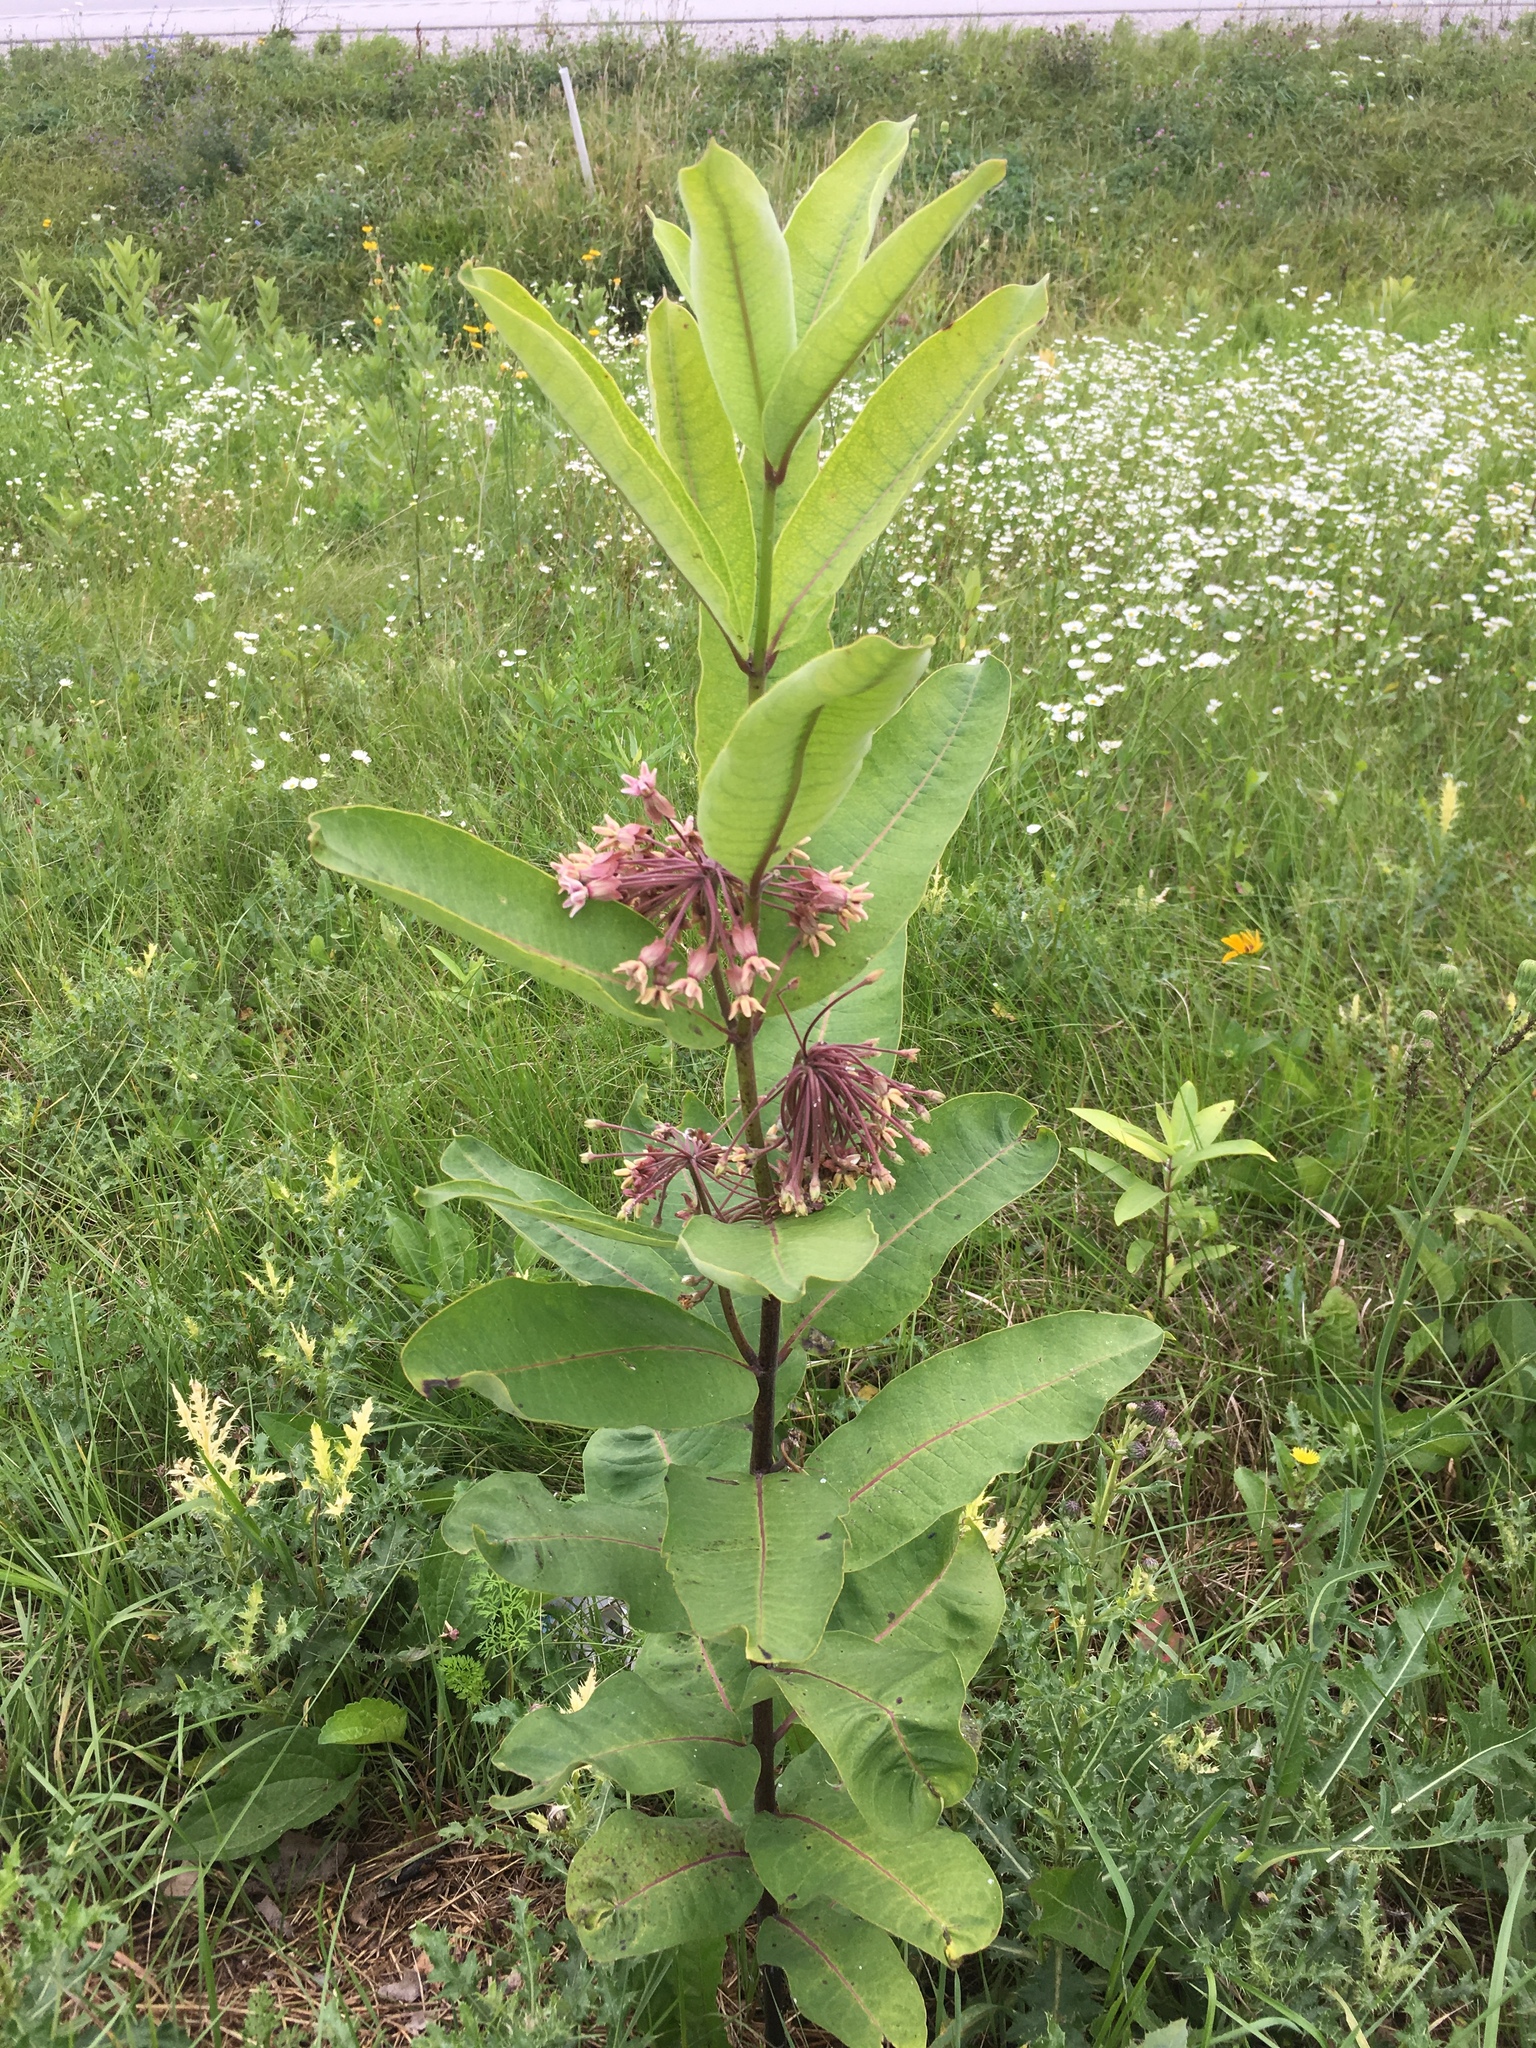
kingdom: Plantae
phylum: Tracheophyta
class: Magnoliopsida
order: Gentianales
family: Apocynaceae
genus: Asclepias
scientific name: Asclepias syriaca
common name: Common milkweed
